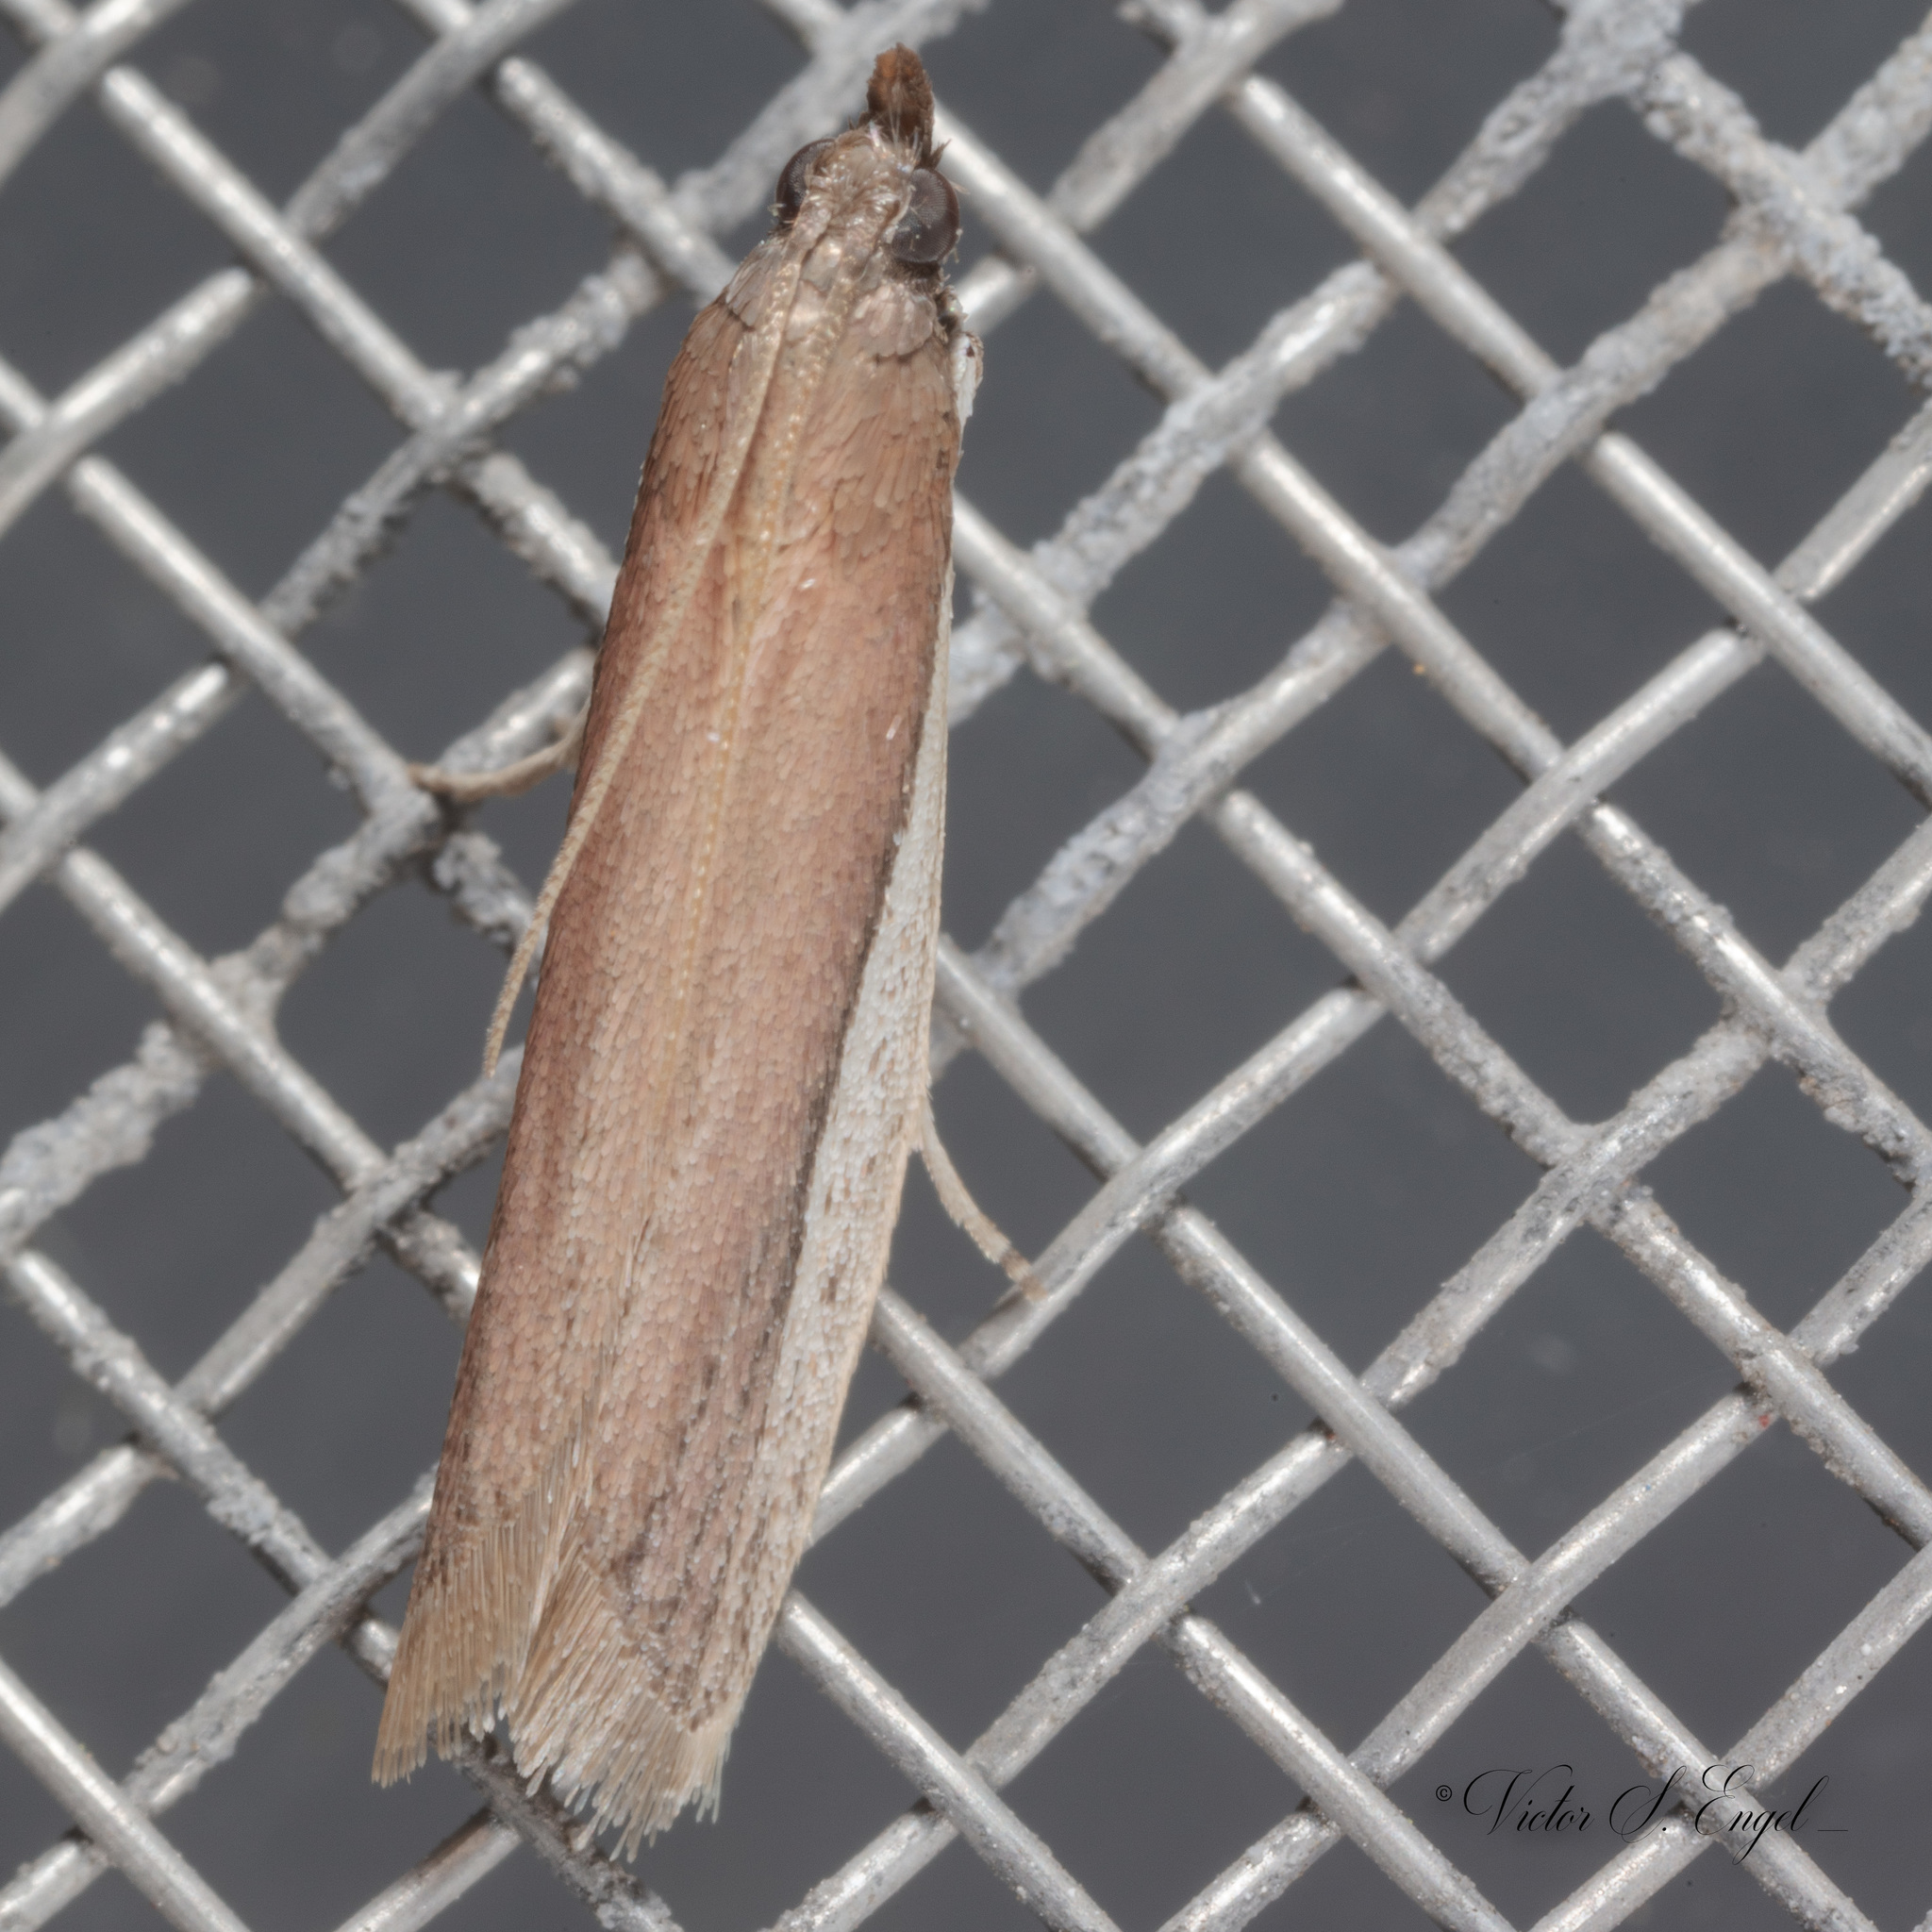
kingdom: Animalia
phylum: Arthropoda
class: Insecta
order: Lepidoptera
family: Pyralidae
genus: Tampa
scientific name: Tampa dimediatella
